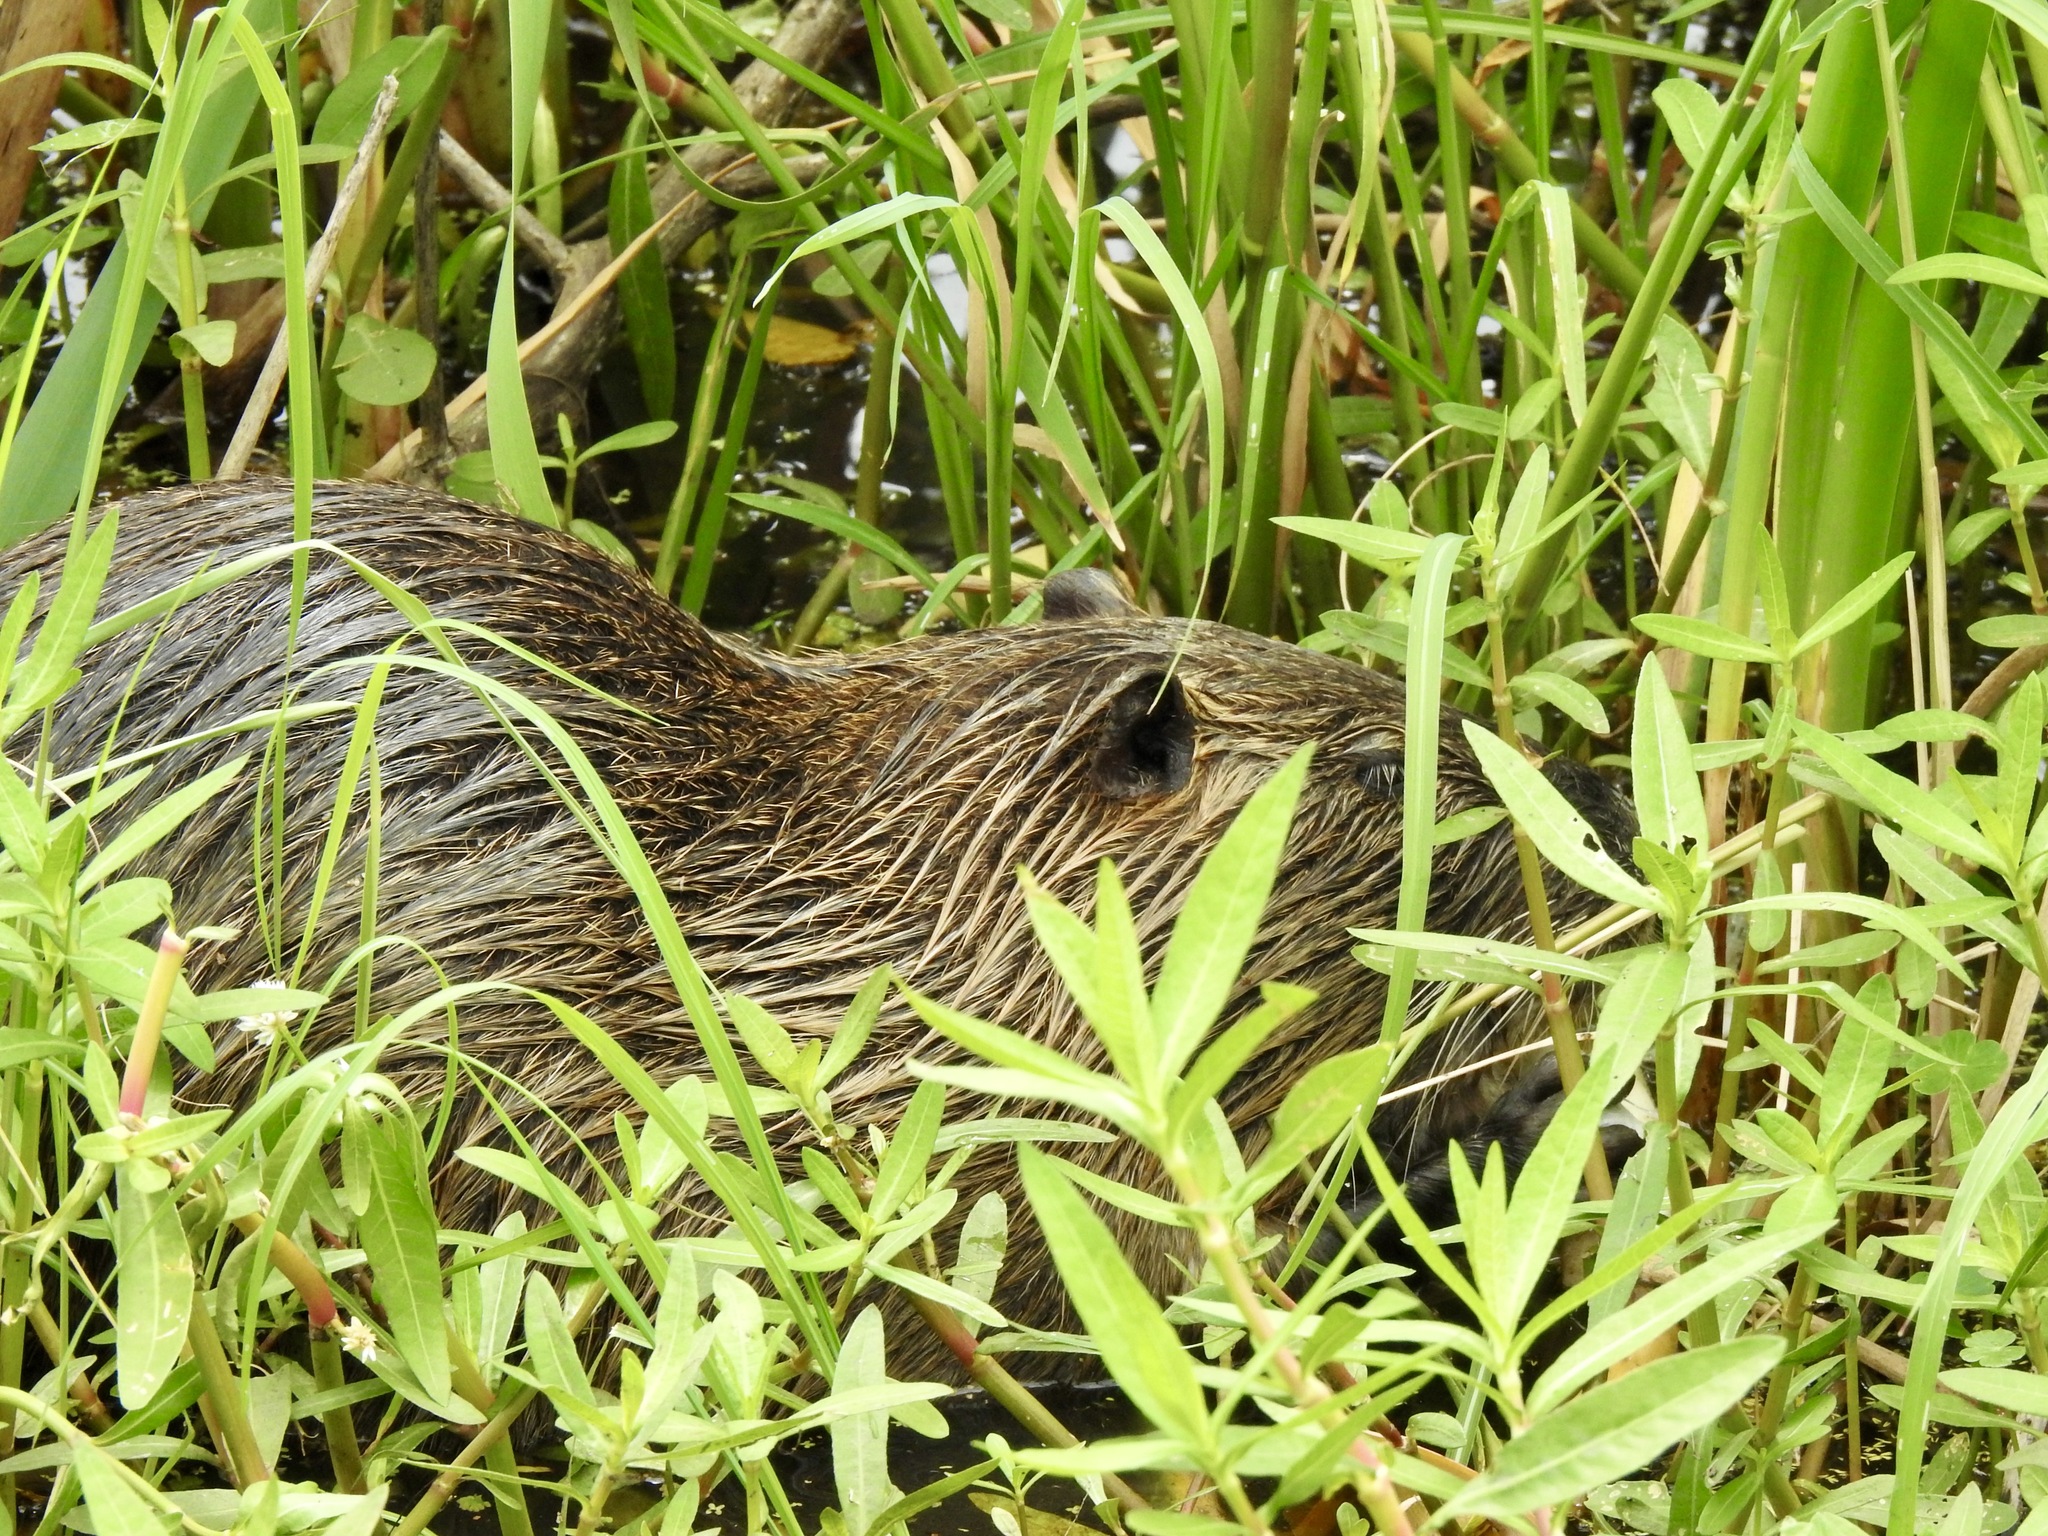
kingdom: Animalia
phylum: Chordata
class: Mammalia
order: Rodentia
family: Myocastoridae
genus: Myocastor
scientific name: Myocastor coypus
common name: Coypu
